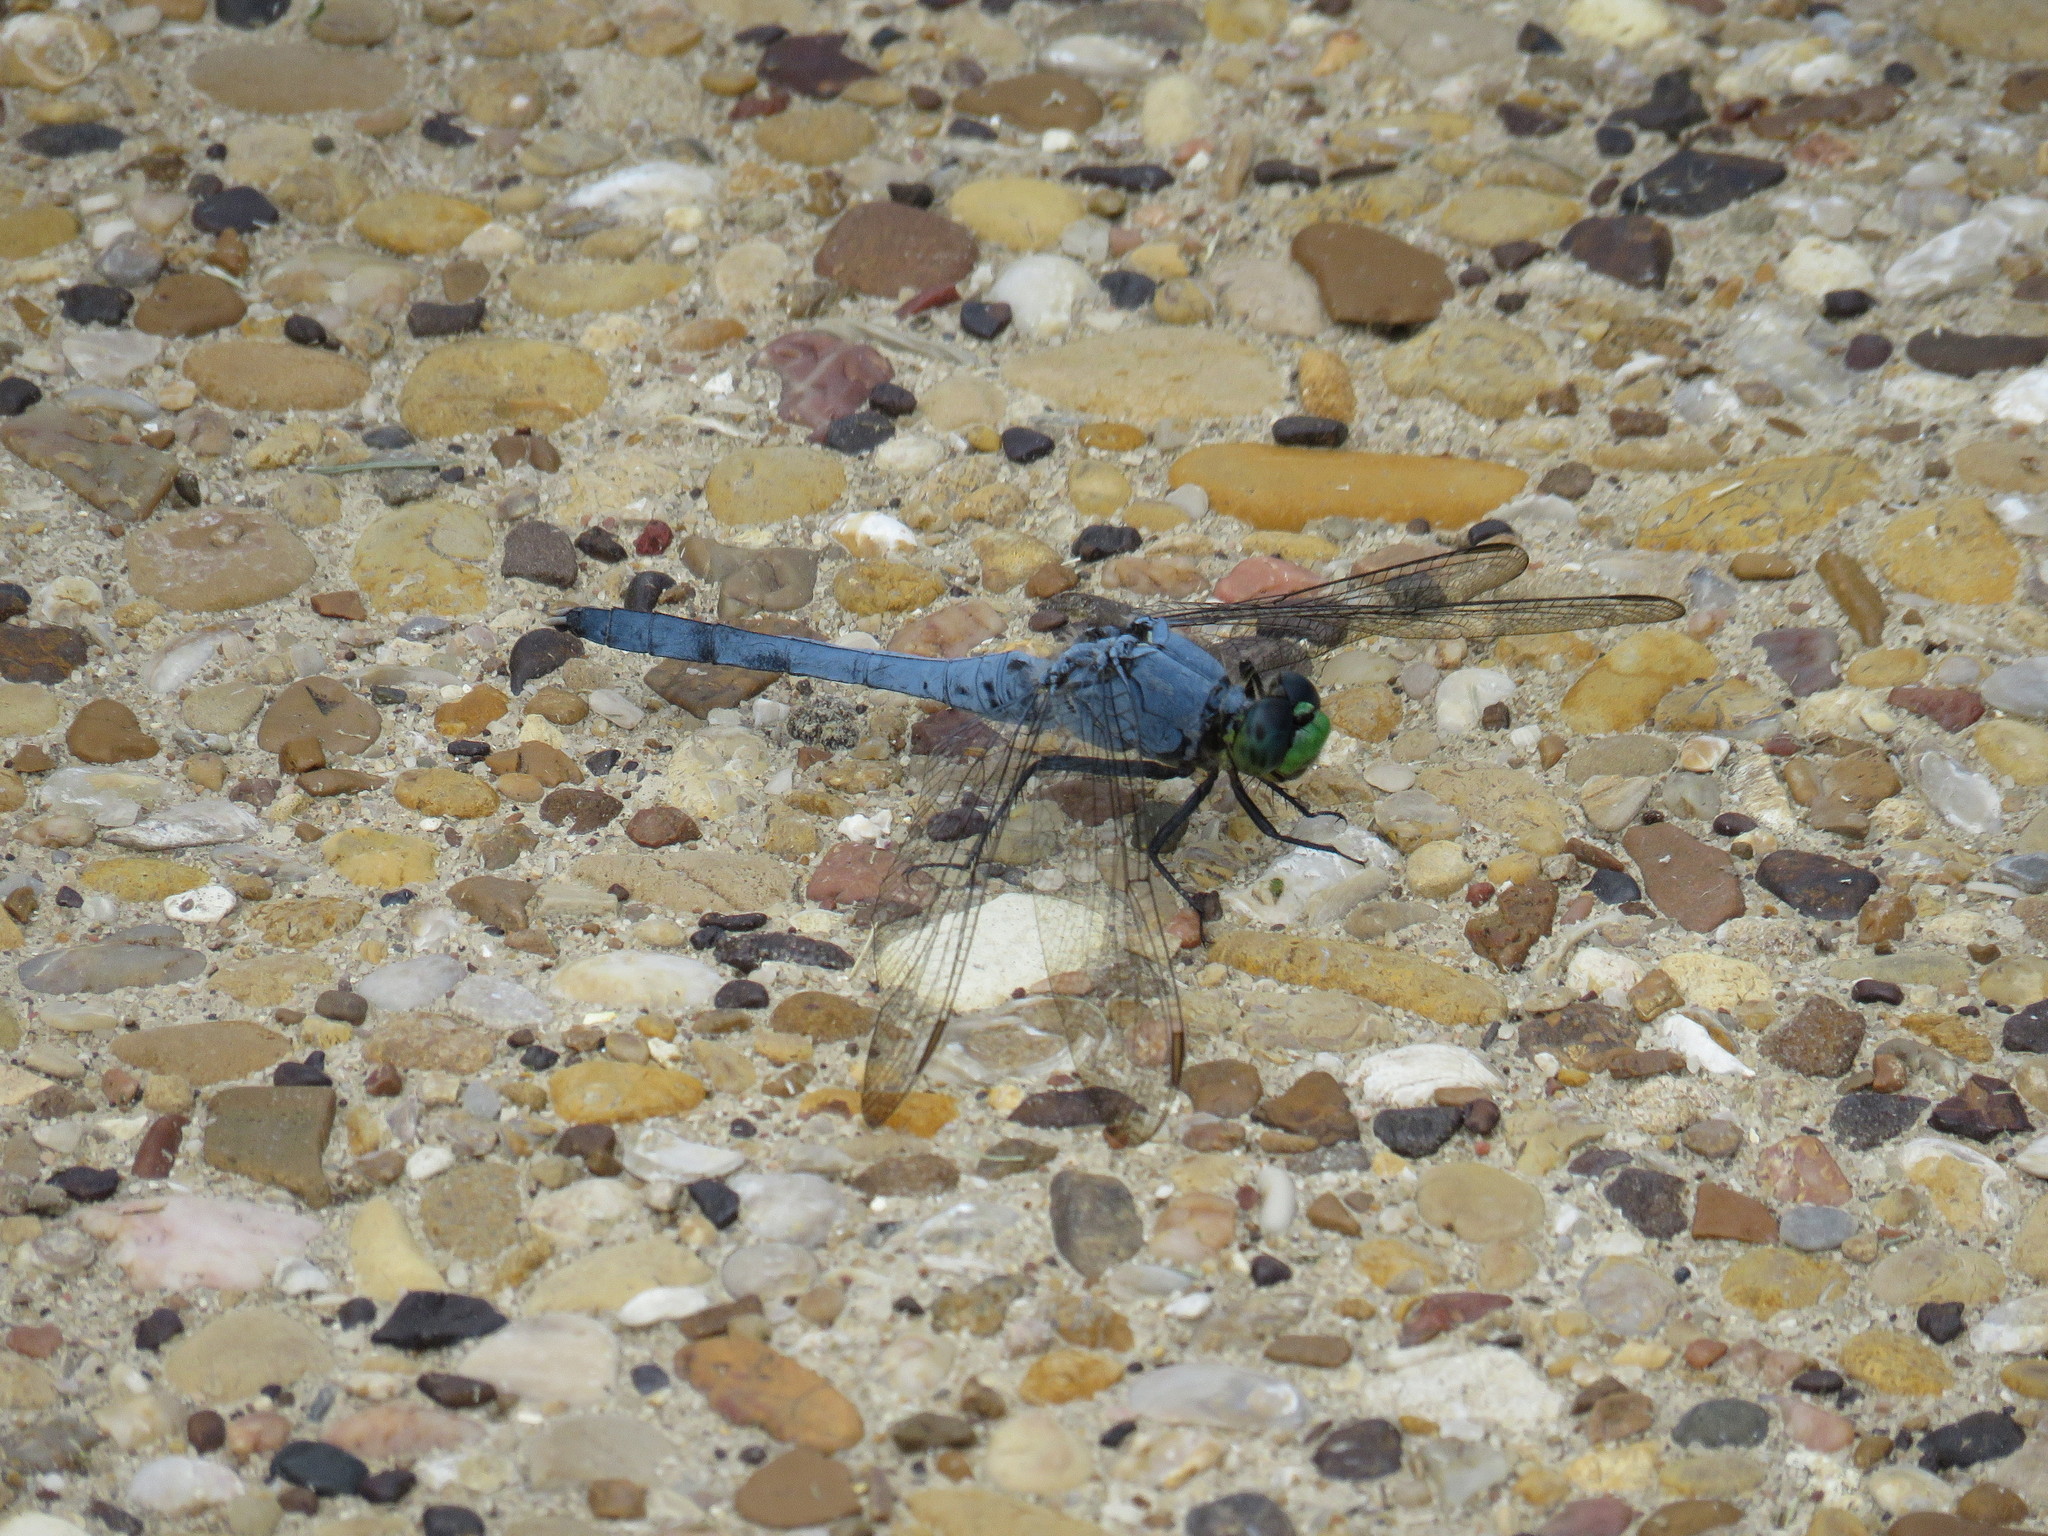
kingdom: Animalia
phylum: Arthropoda
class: Insecta
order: Odonata
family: Libellulidae
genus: Erythemis
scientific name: Erythemis simplicicollis
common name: Eastern pondhawk
